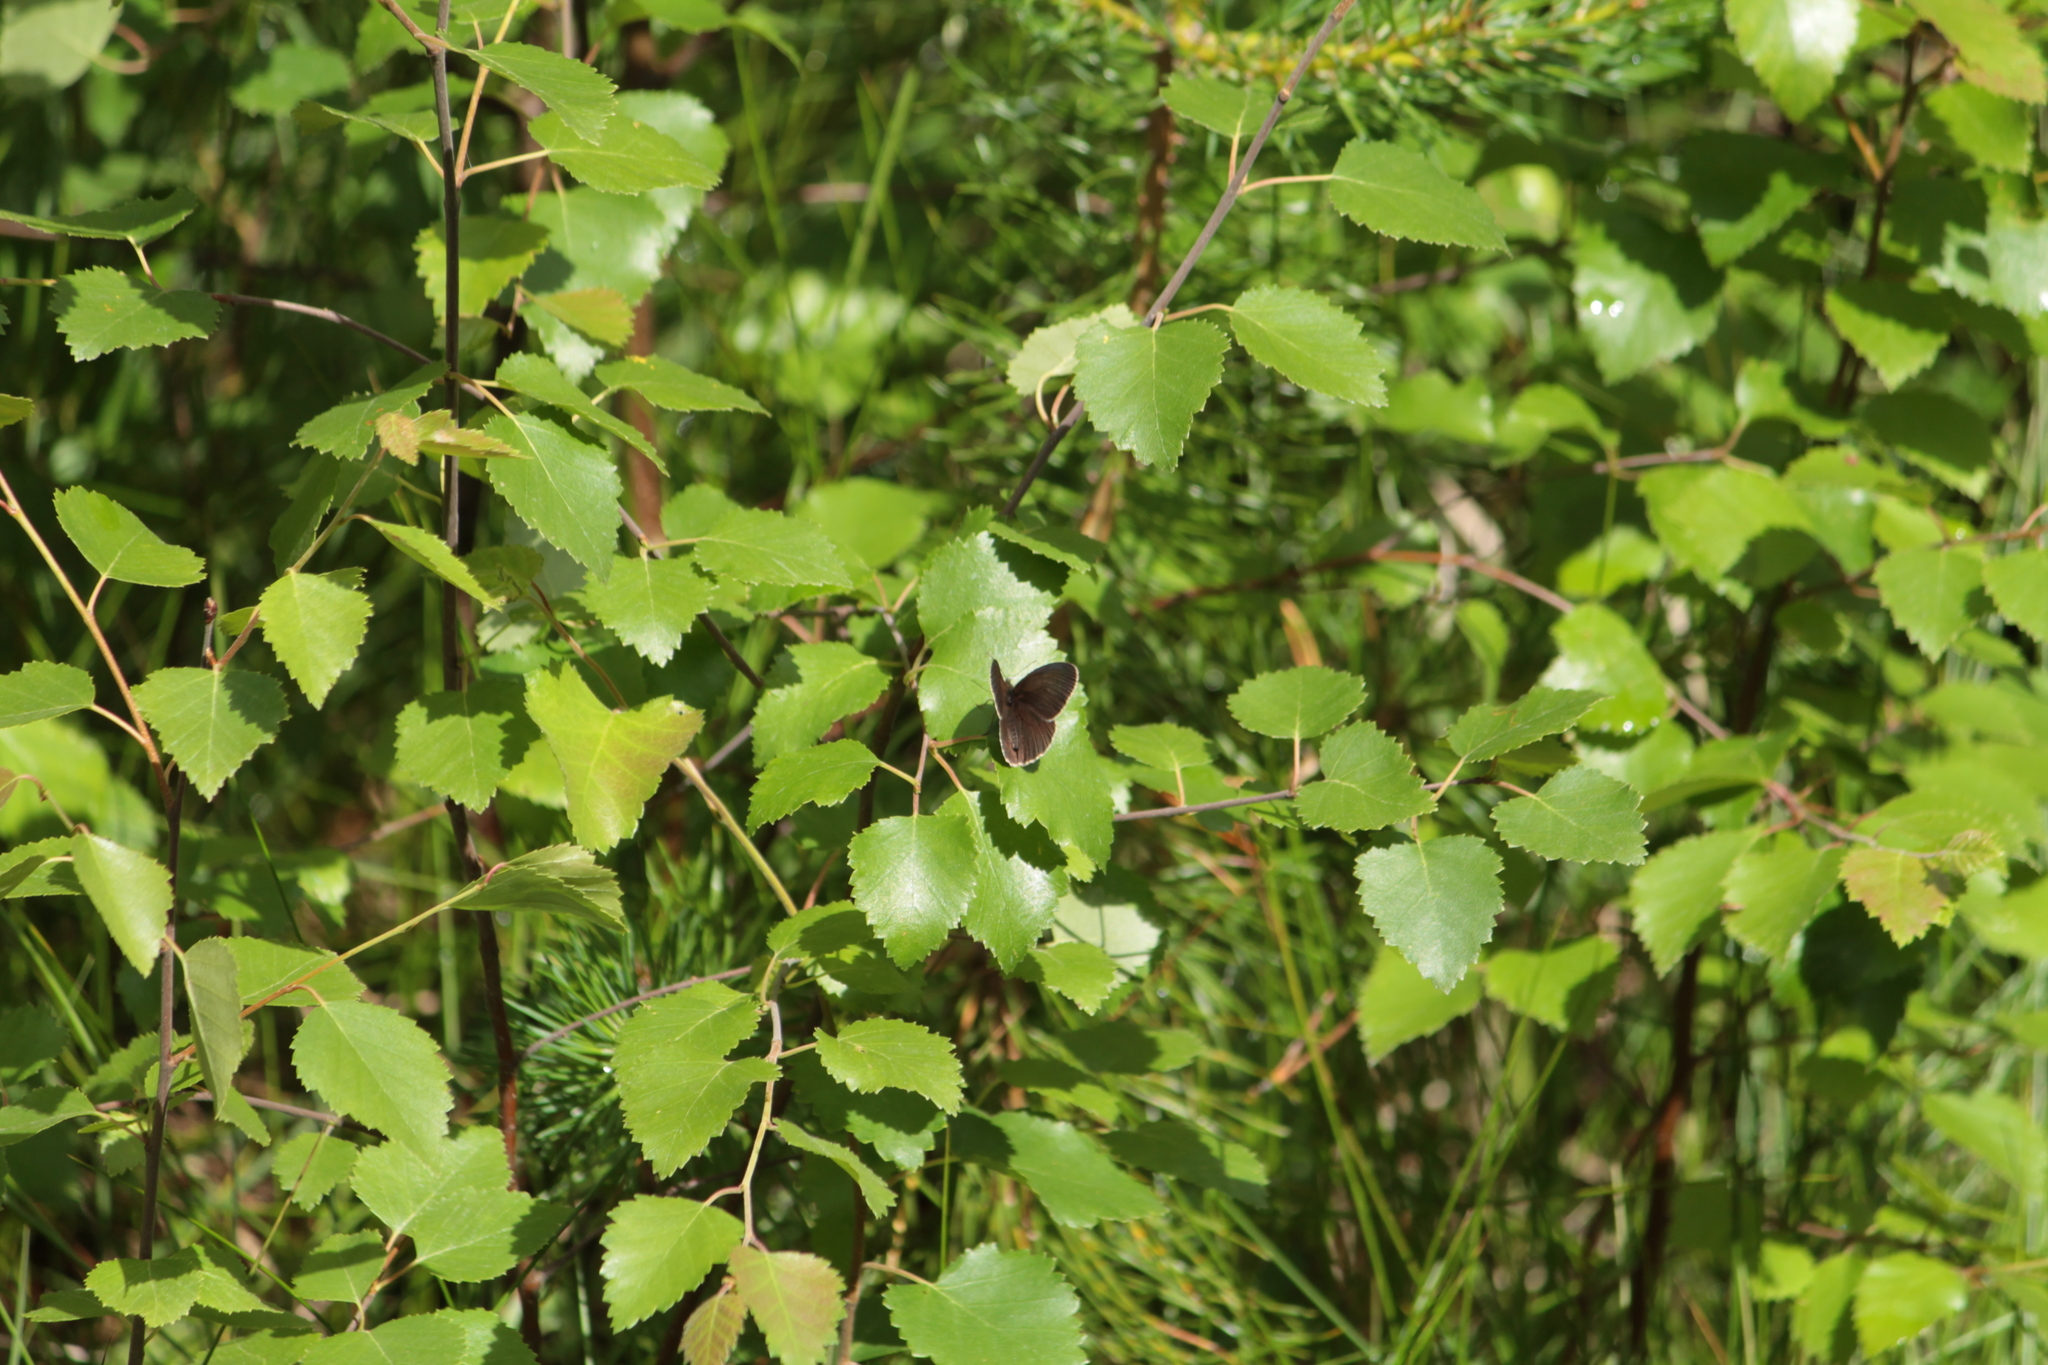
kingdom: Animalia
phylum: Arthropoda
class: Insecta
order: Lepidoptera
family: Nymphalidae
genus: Aphantopus
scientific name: Aphantopus hyperantus
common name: Ringlet
